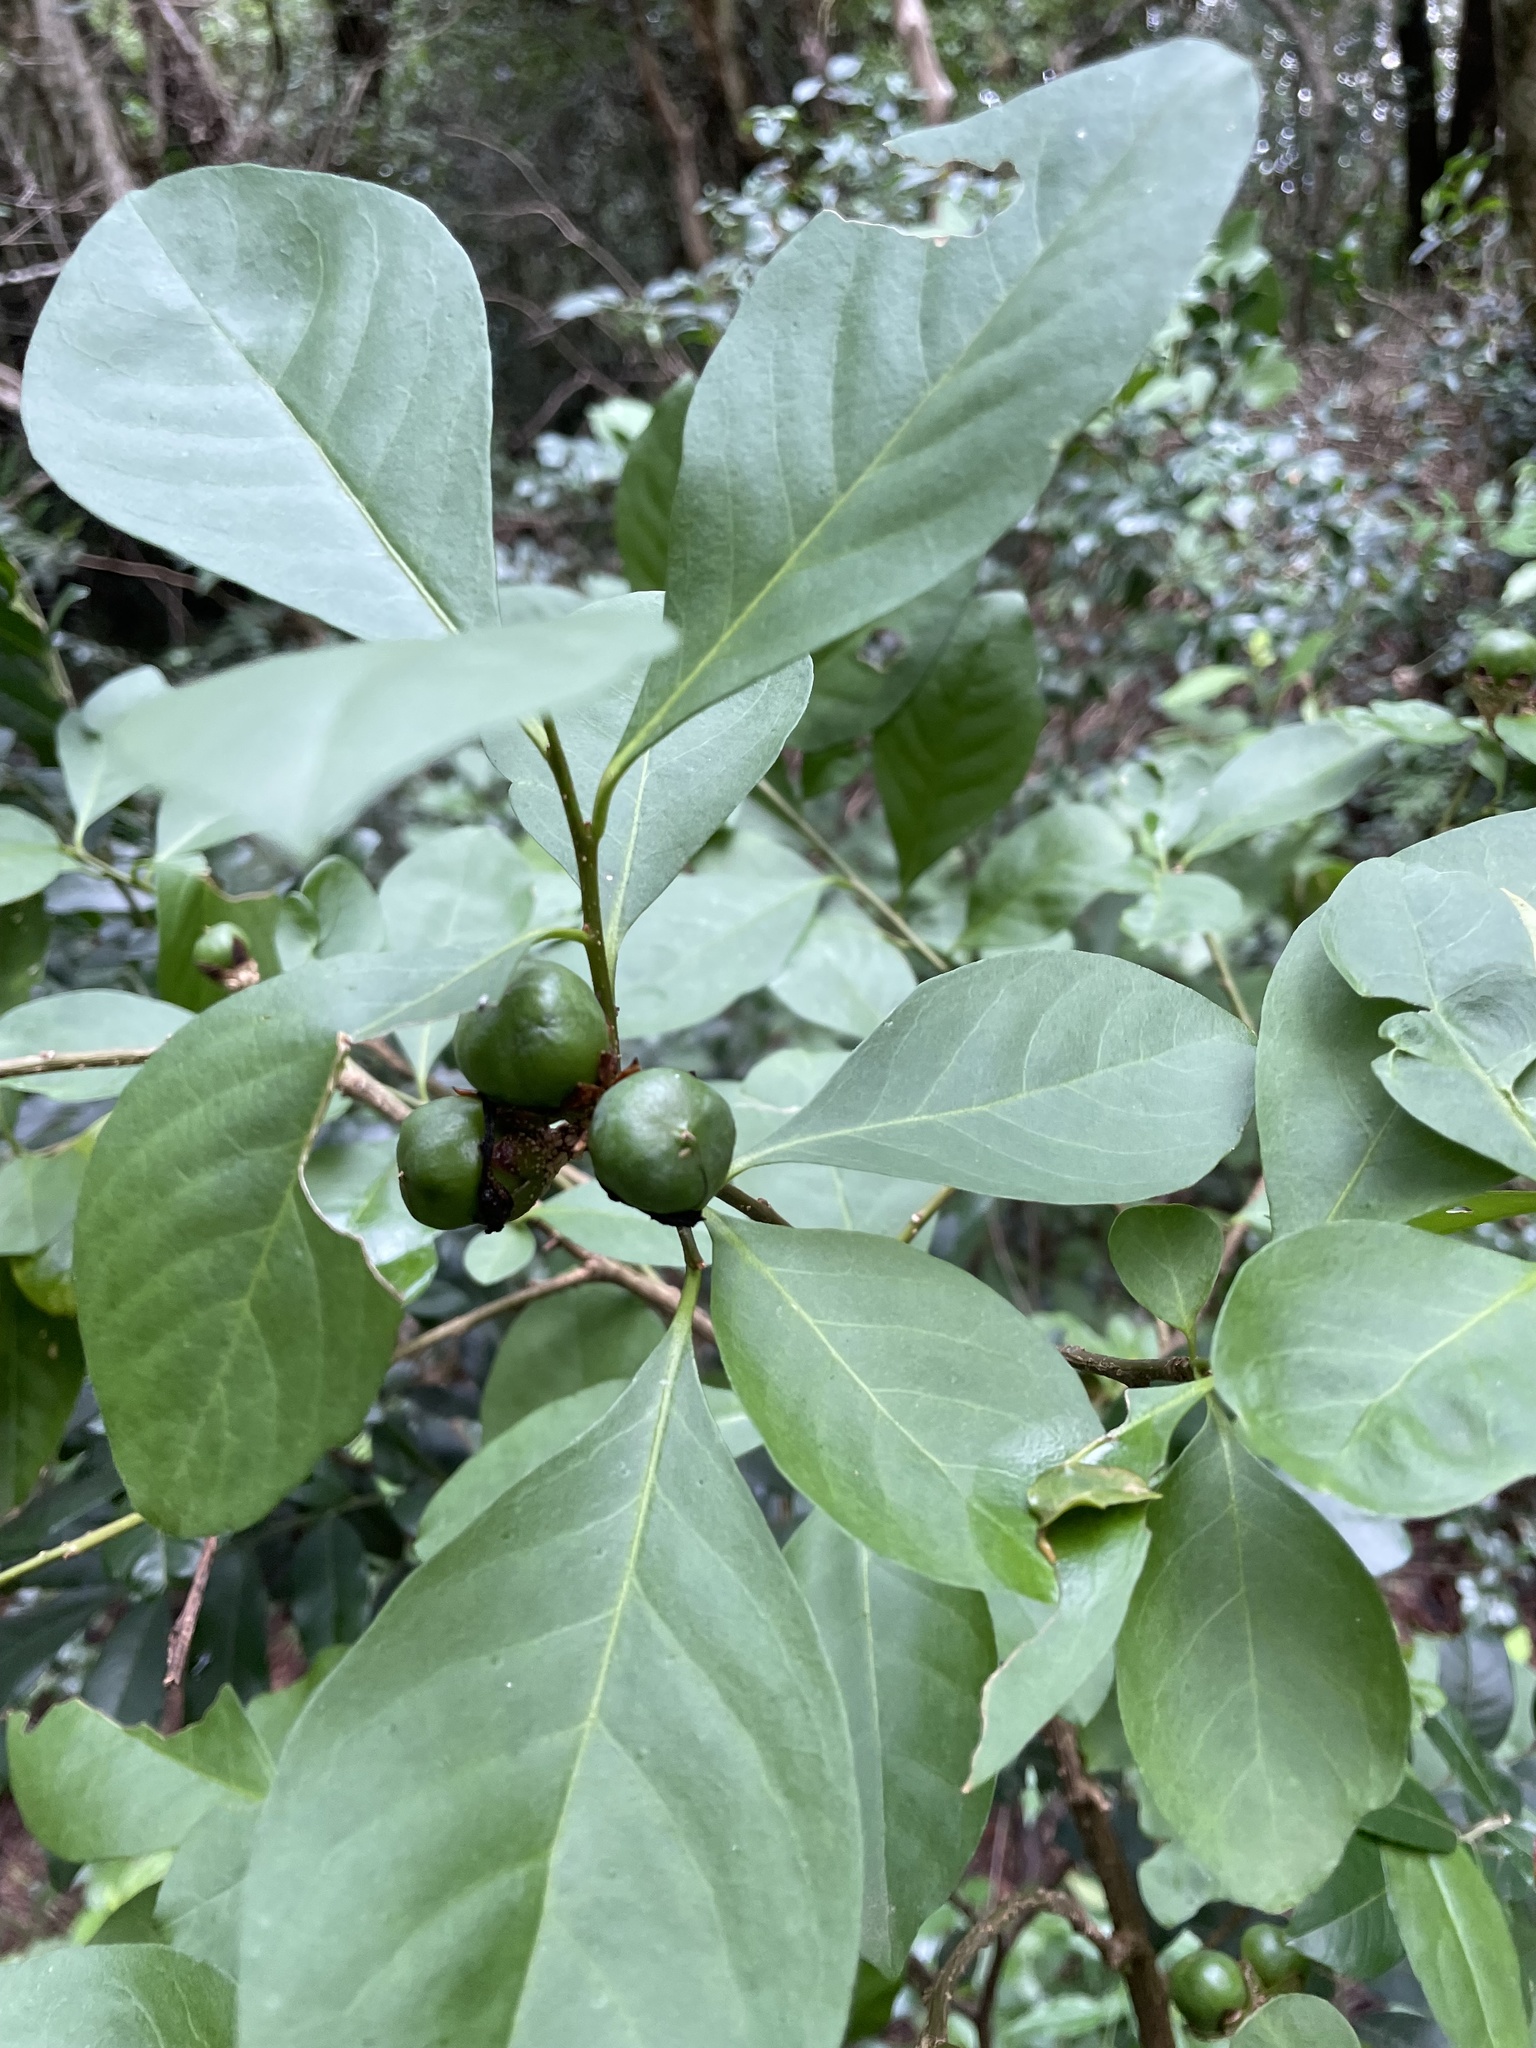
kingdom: Plantae
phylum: Tracheophyta
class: Magnoliopsida
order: Solanales
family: Solanaceae
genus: Brunfelsia
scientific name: Brunfelsia australis
